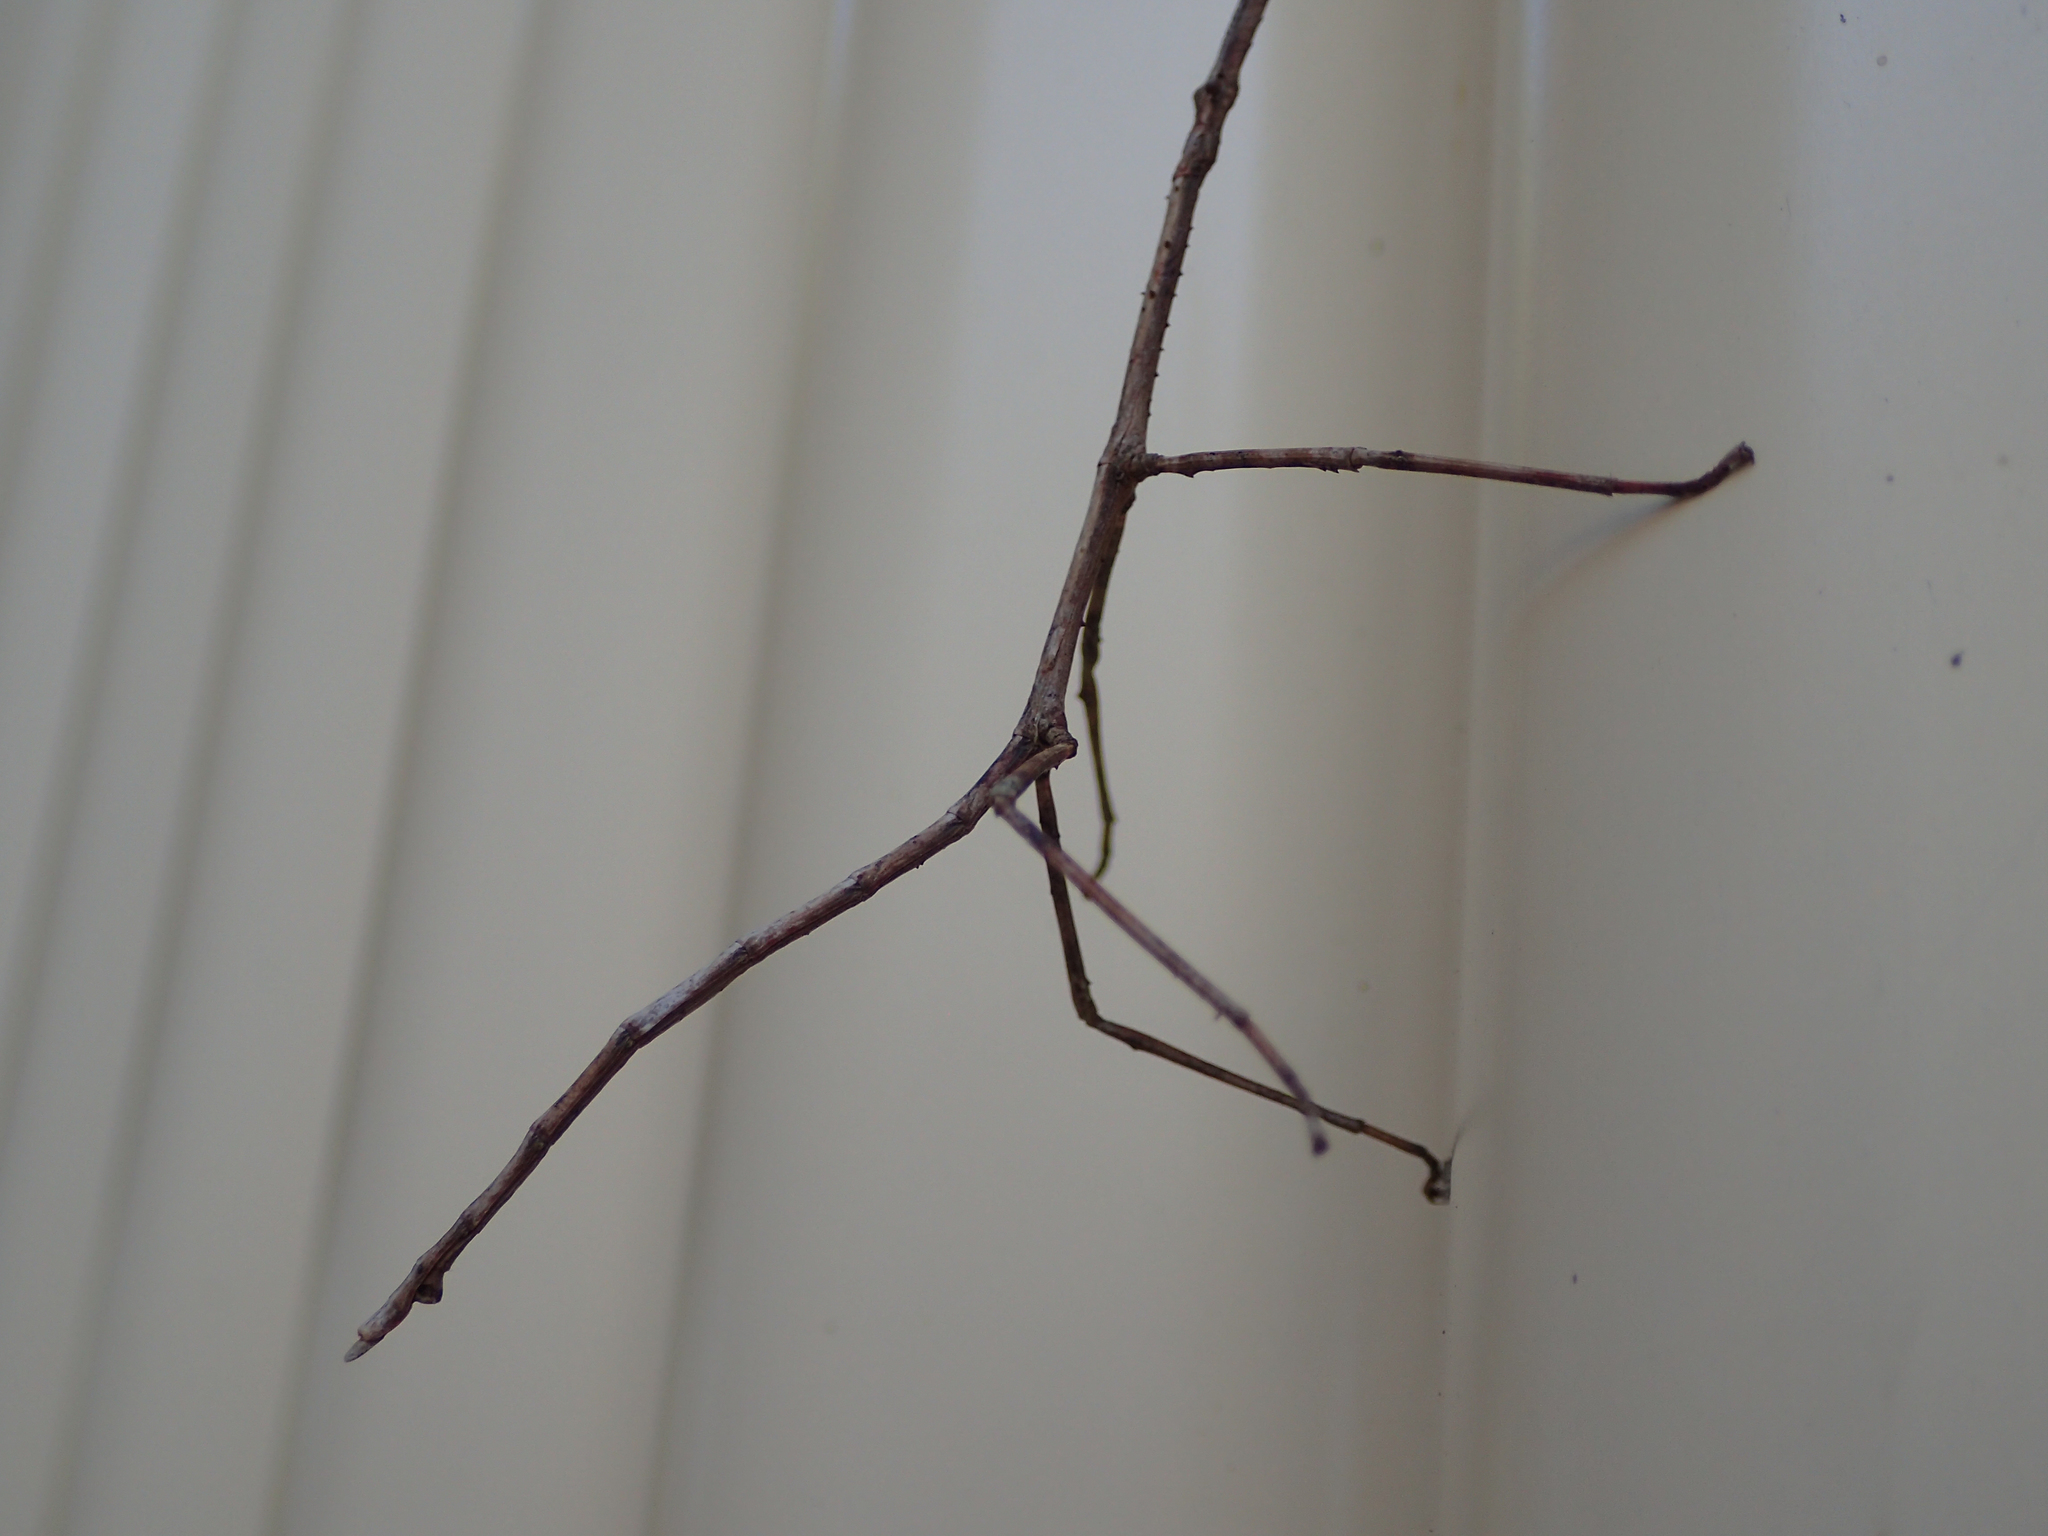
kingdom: Animalia
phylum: Arthropoda
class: Insecta
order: Phasmida
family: Phasmatidae
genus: Argosarchus
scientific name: Argosarchus horridus
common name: Bristly stick insect
